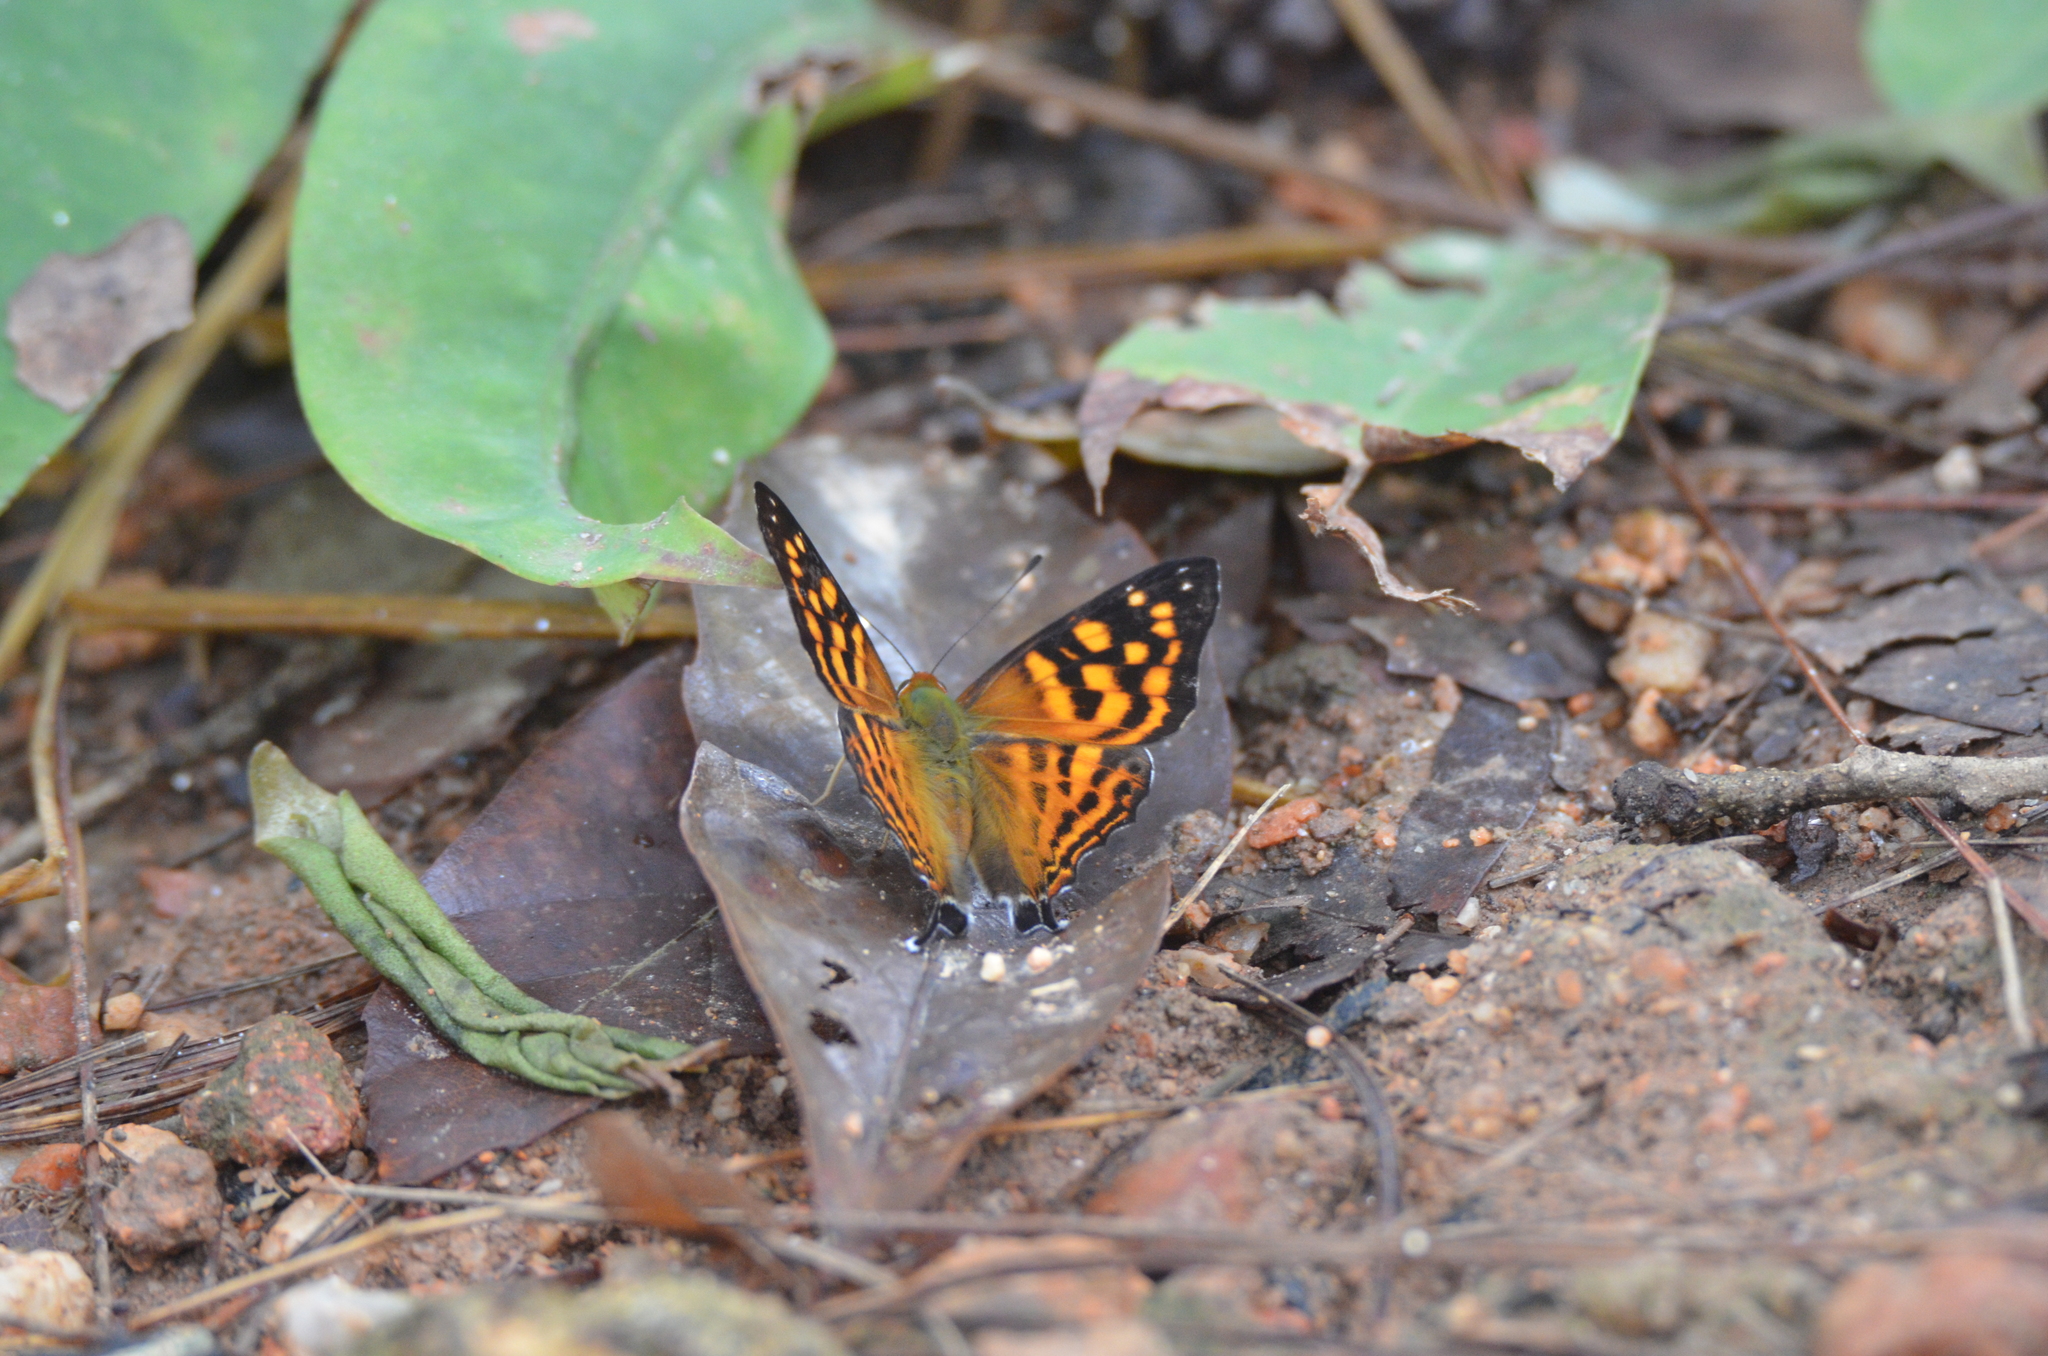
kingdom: Animalia
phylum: Arthropoda
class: Insecta
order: Lepidoptera
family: Lycaenidae
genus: Dodona
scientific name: Dodona egeon
